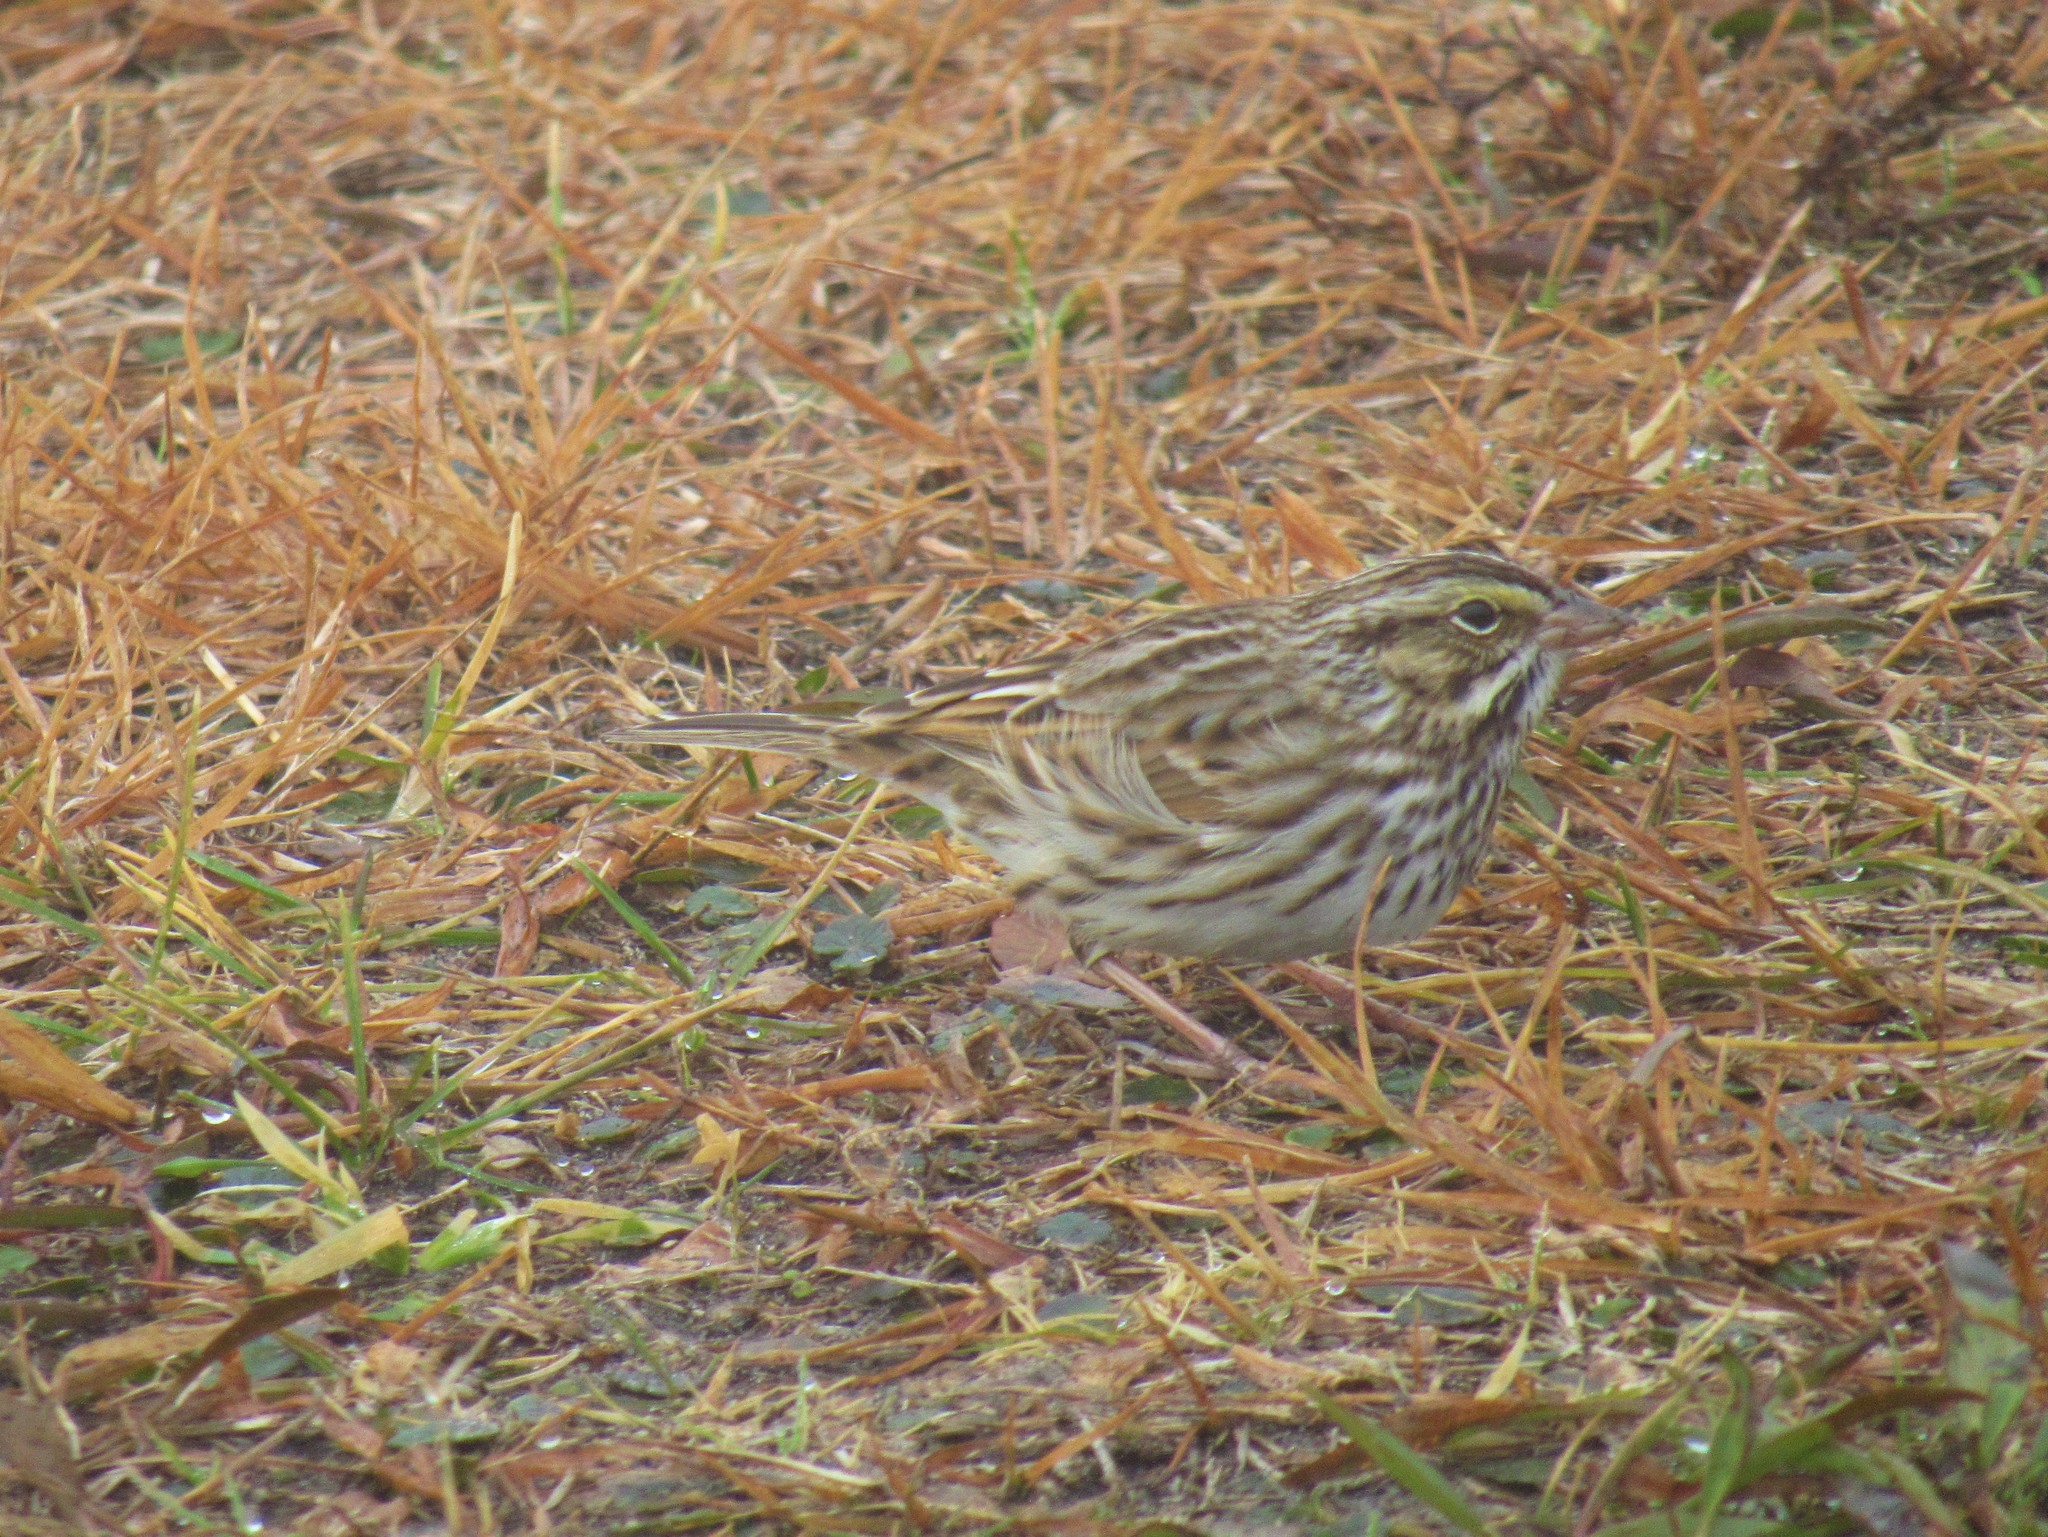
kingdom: Animalia
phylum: Chordata
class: Aves
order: Passeriformes
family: Passerellidae
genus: Passerculus
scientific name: Passerculus sandwichensis
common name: Savannah sparrow
